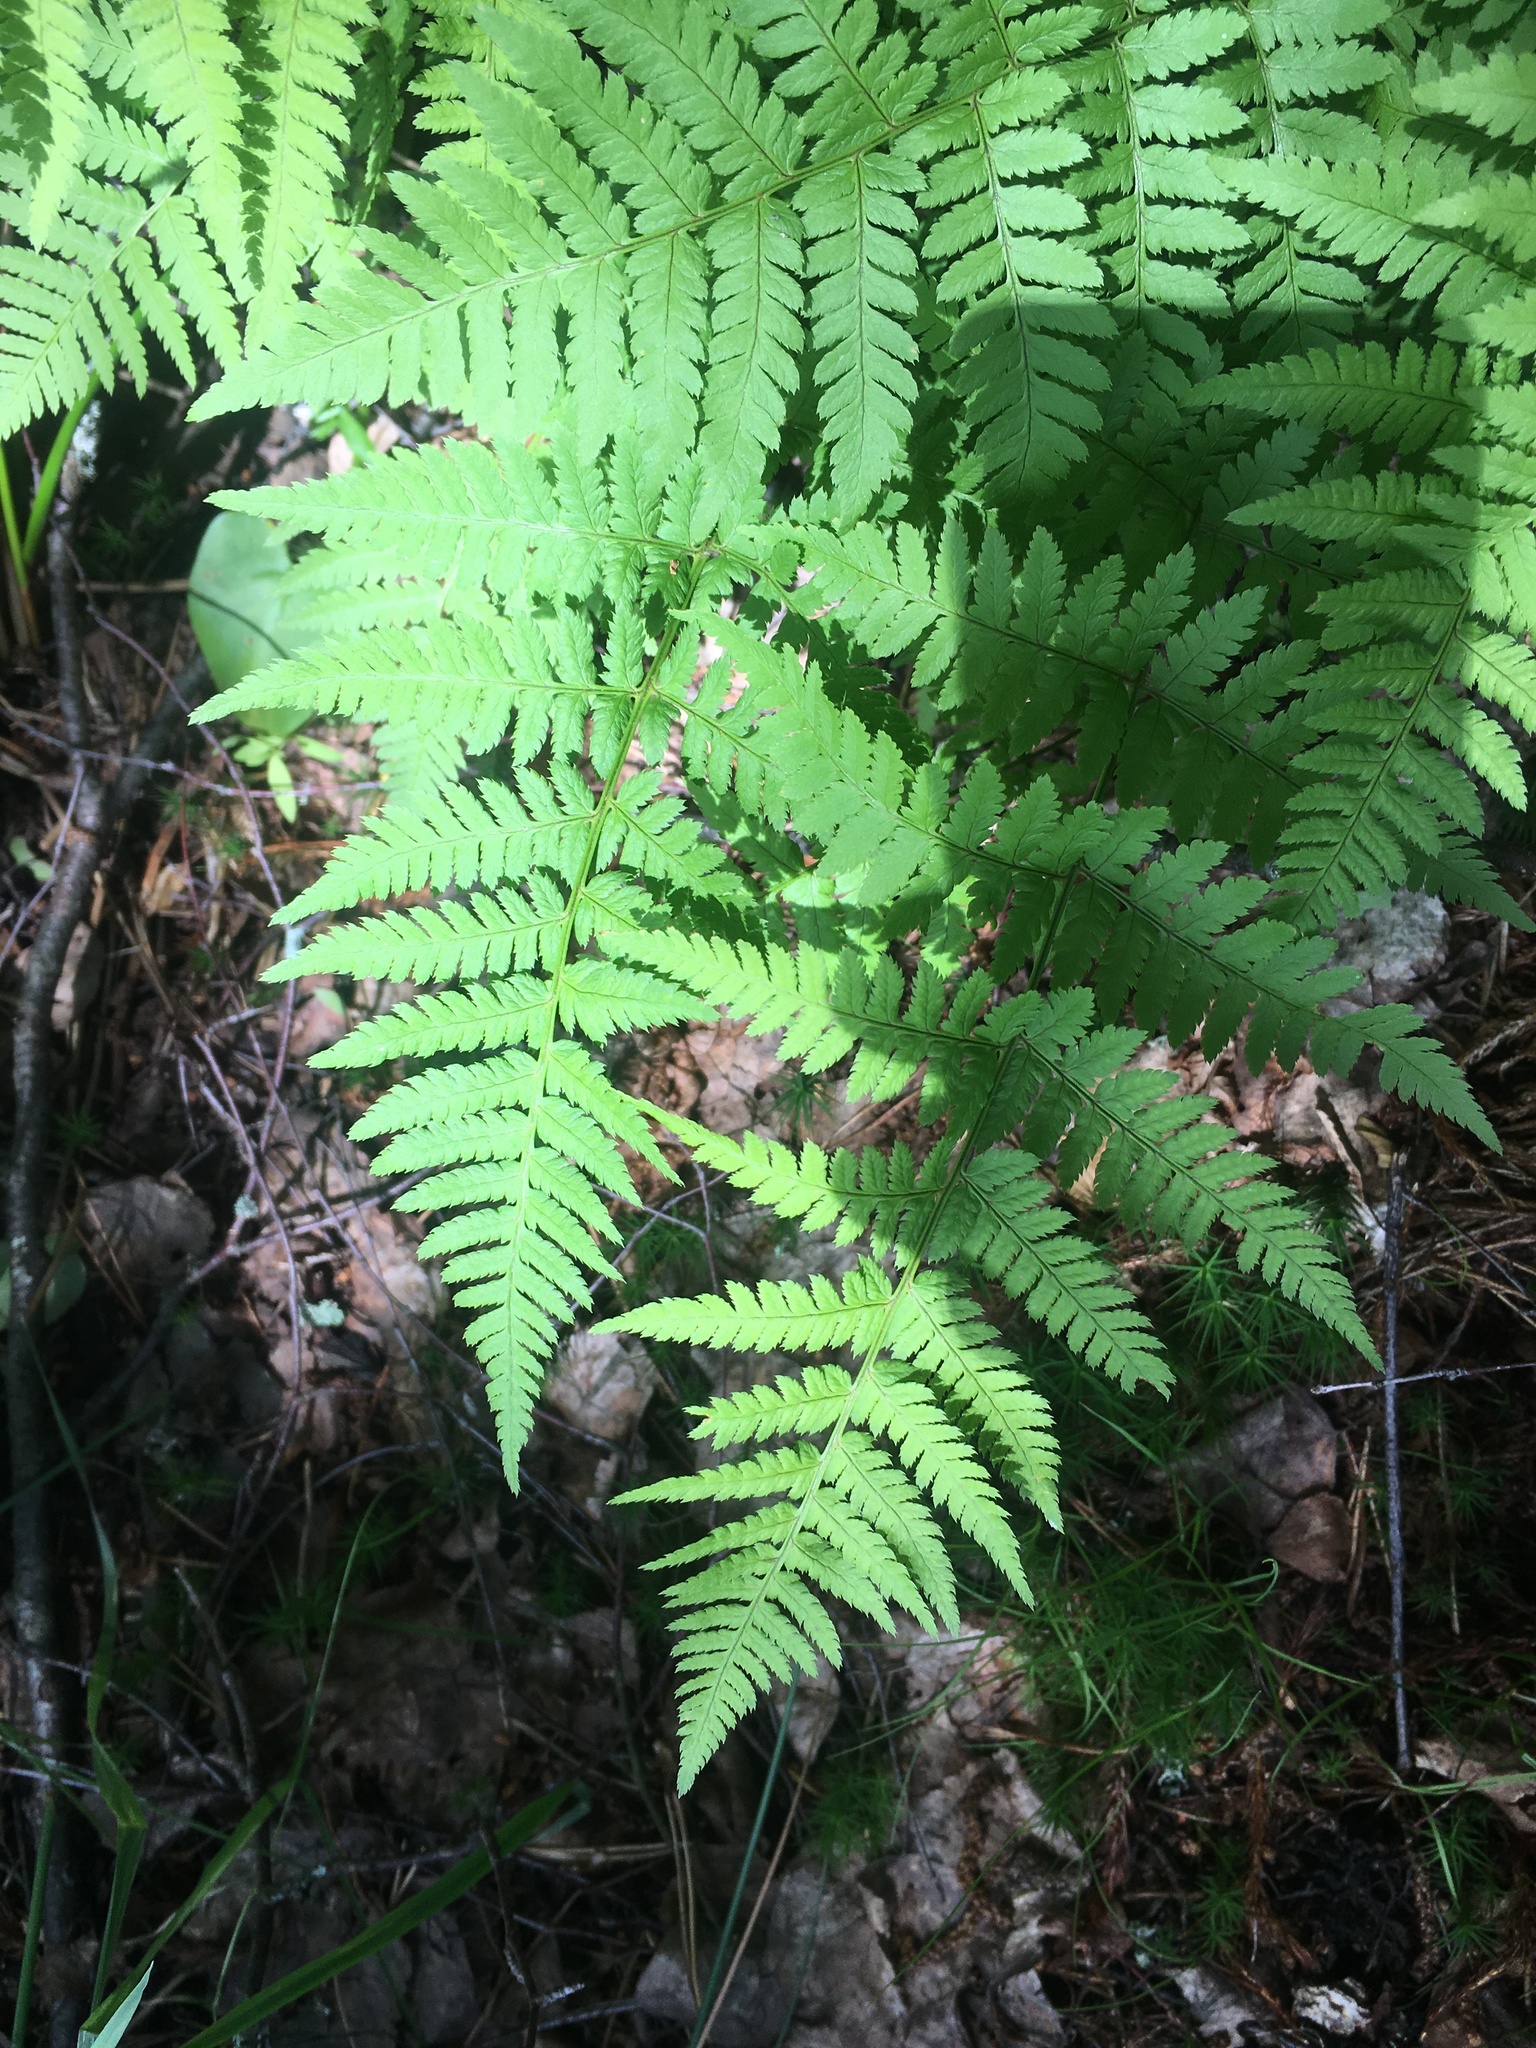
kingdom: Plantae
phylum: Tracheophyta
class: Polypodiopsida
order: Polypodiales
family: Dryopteridaceae
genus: Dryopteris
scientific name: Dryopteris carthusiana
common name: Narrow buckler-fern
